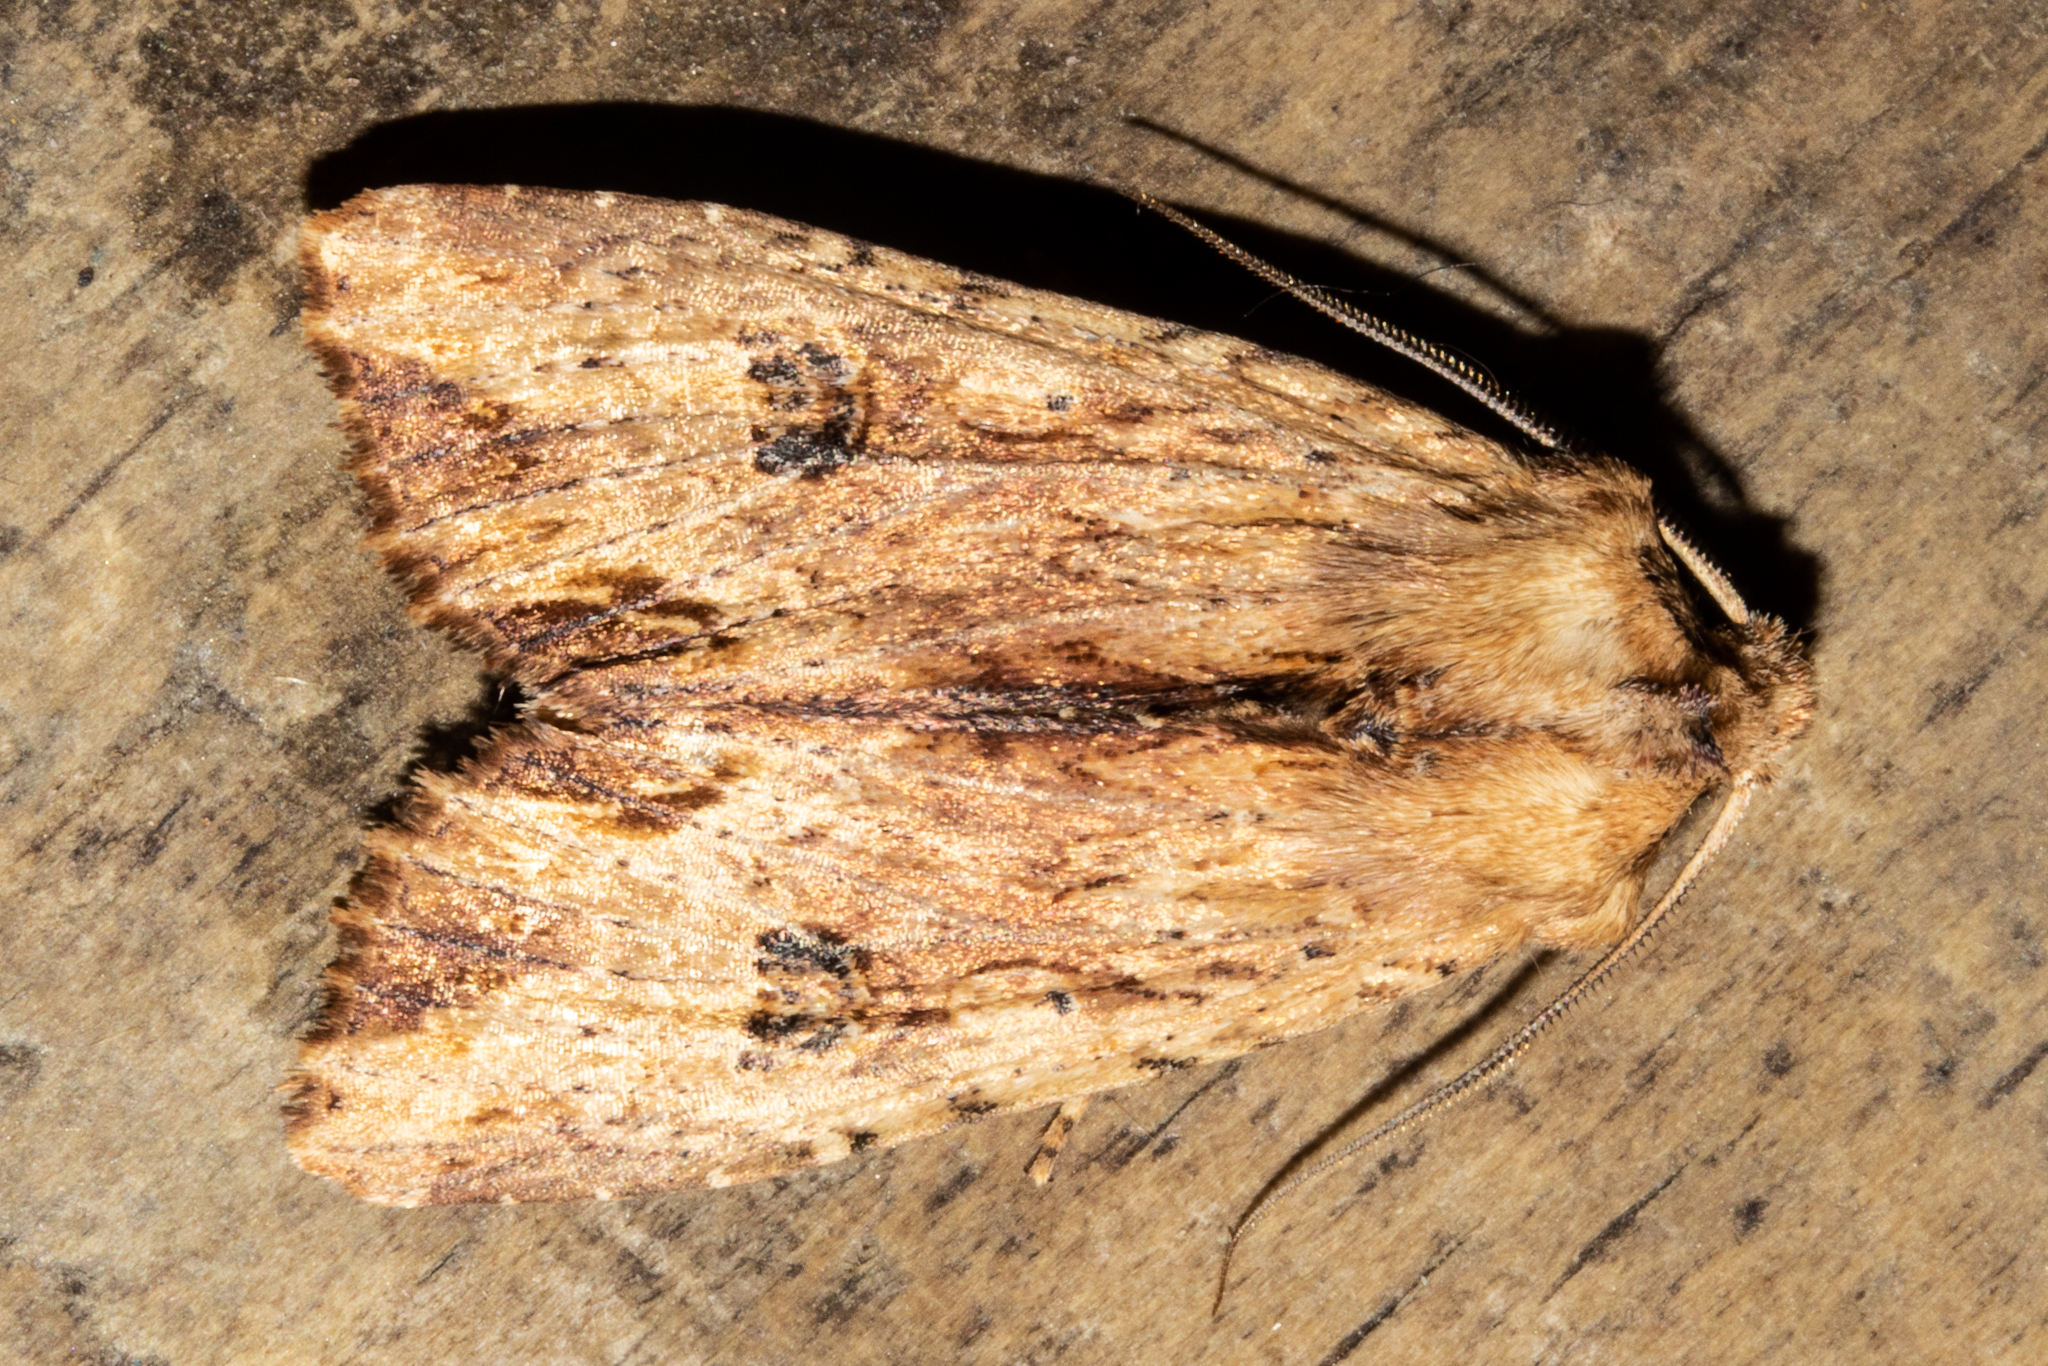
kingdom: Animalia
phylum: Arthropoda
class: Insecta
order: Lepidoptera
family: Noctuidae
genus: Ichneutica
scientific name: Ichneutica
